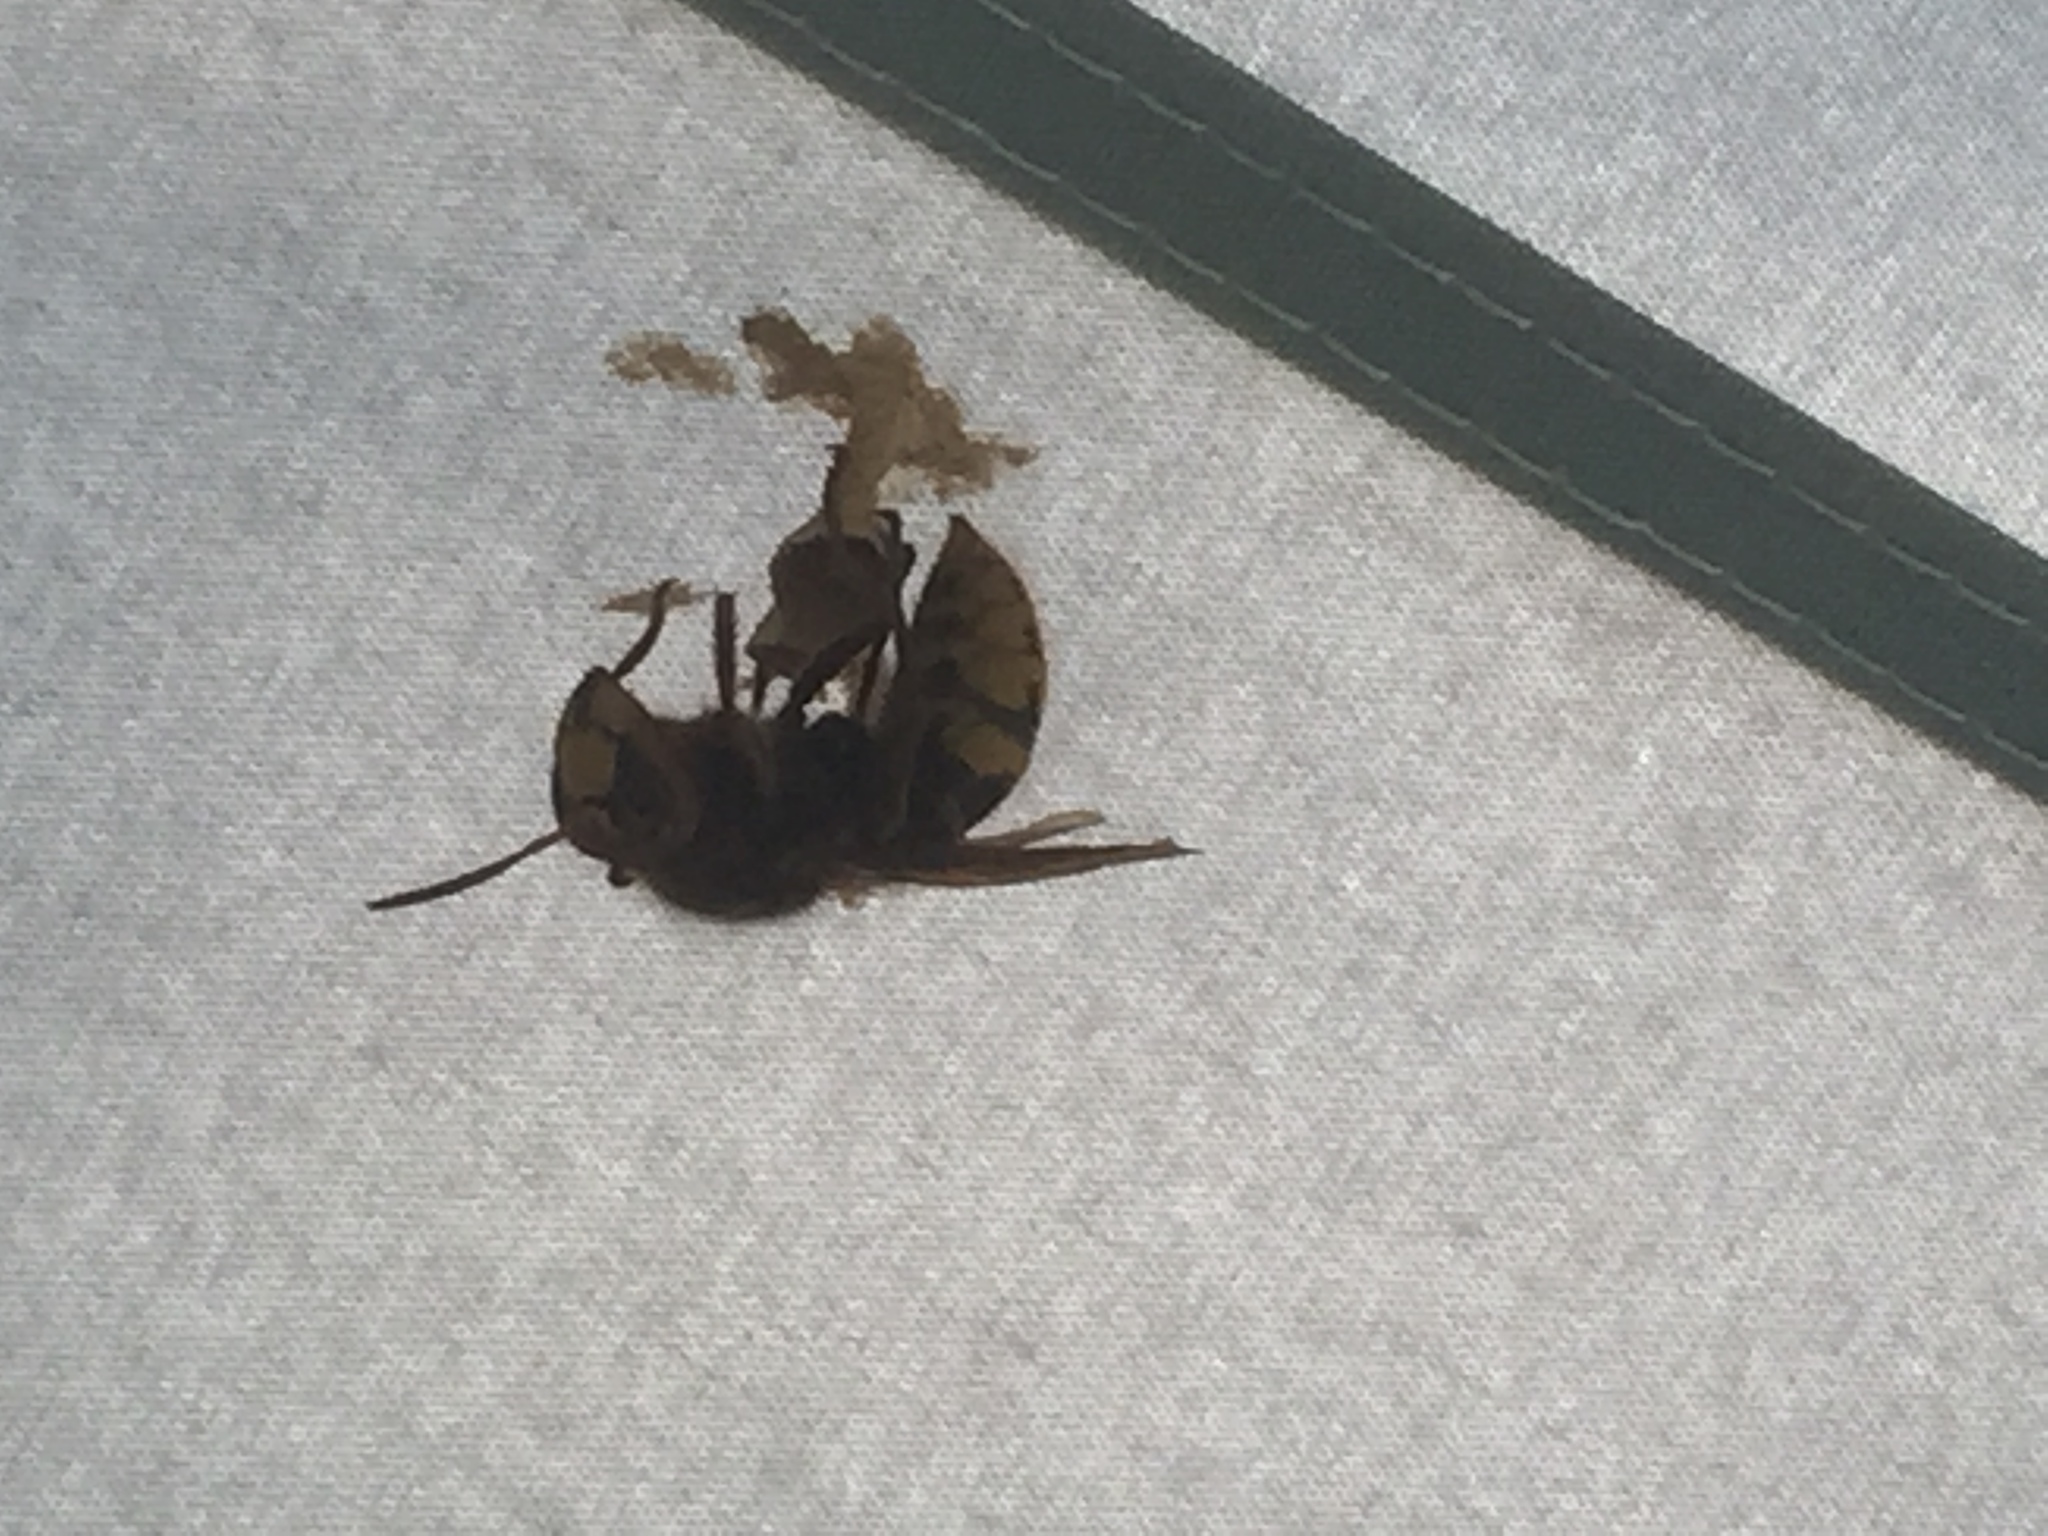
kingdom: Animalia
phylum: Arthropoda
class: Insecta
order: Hymenoptera
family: Vespidae
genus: Vespa
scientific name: Vespa crabro
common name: Hornet
